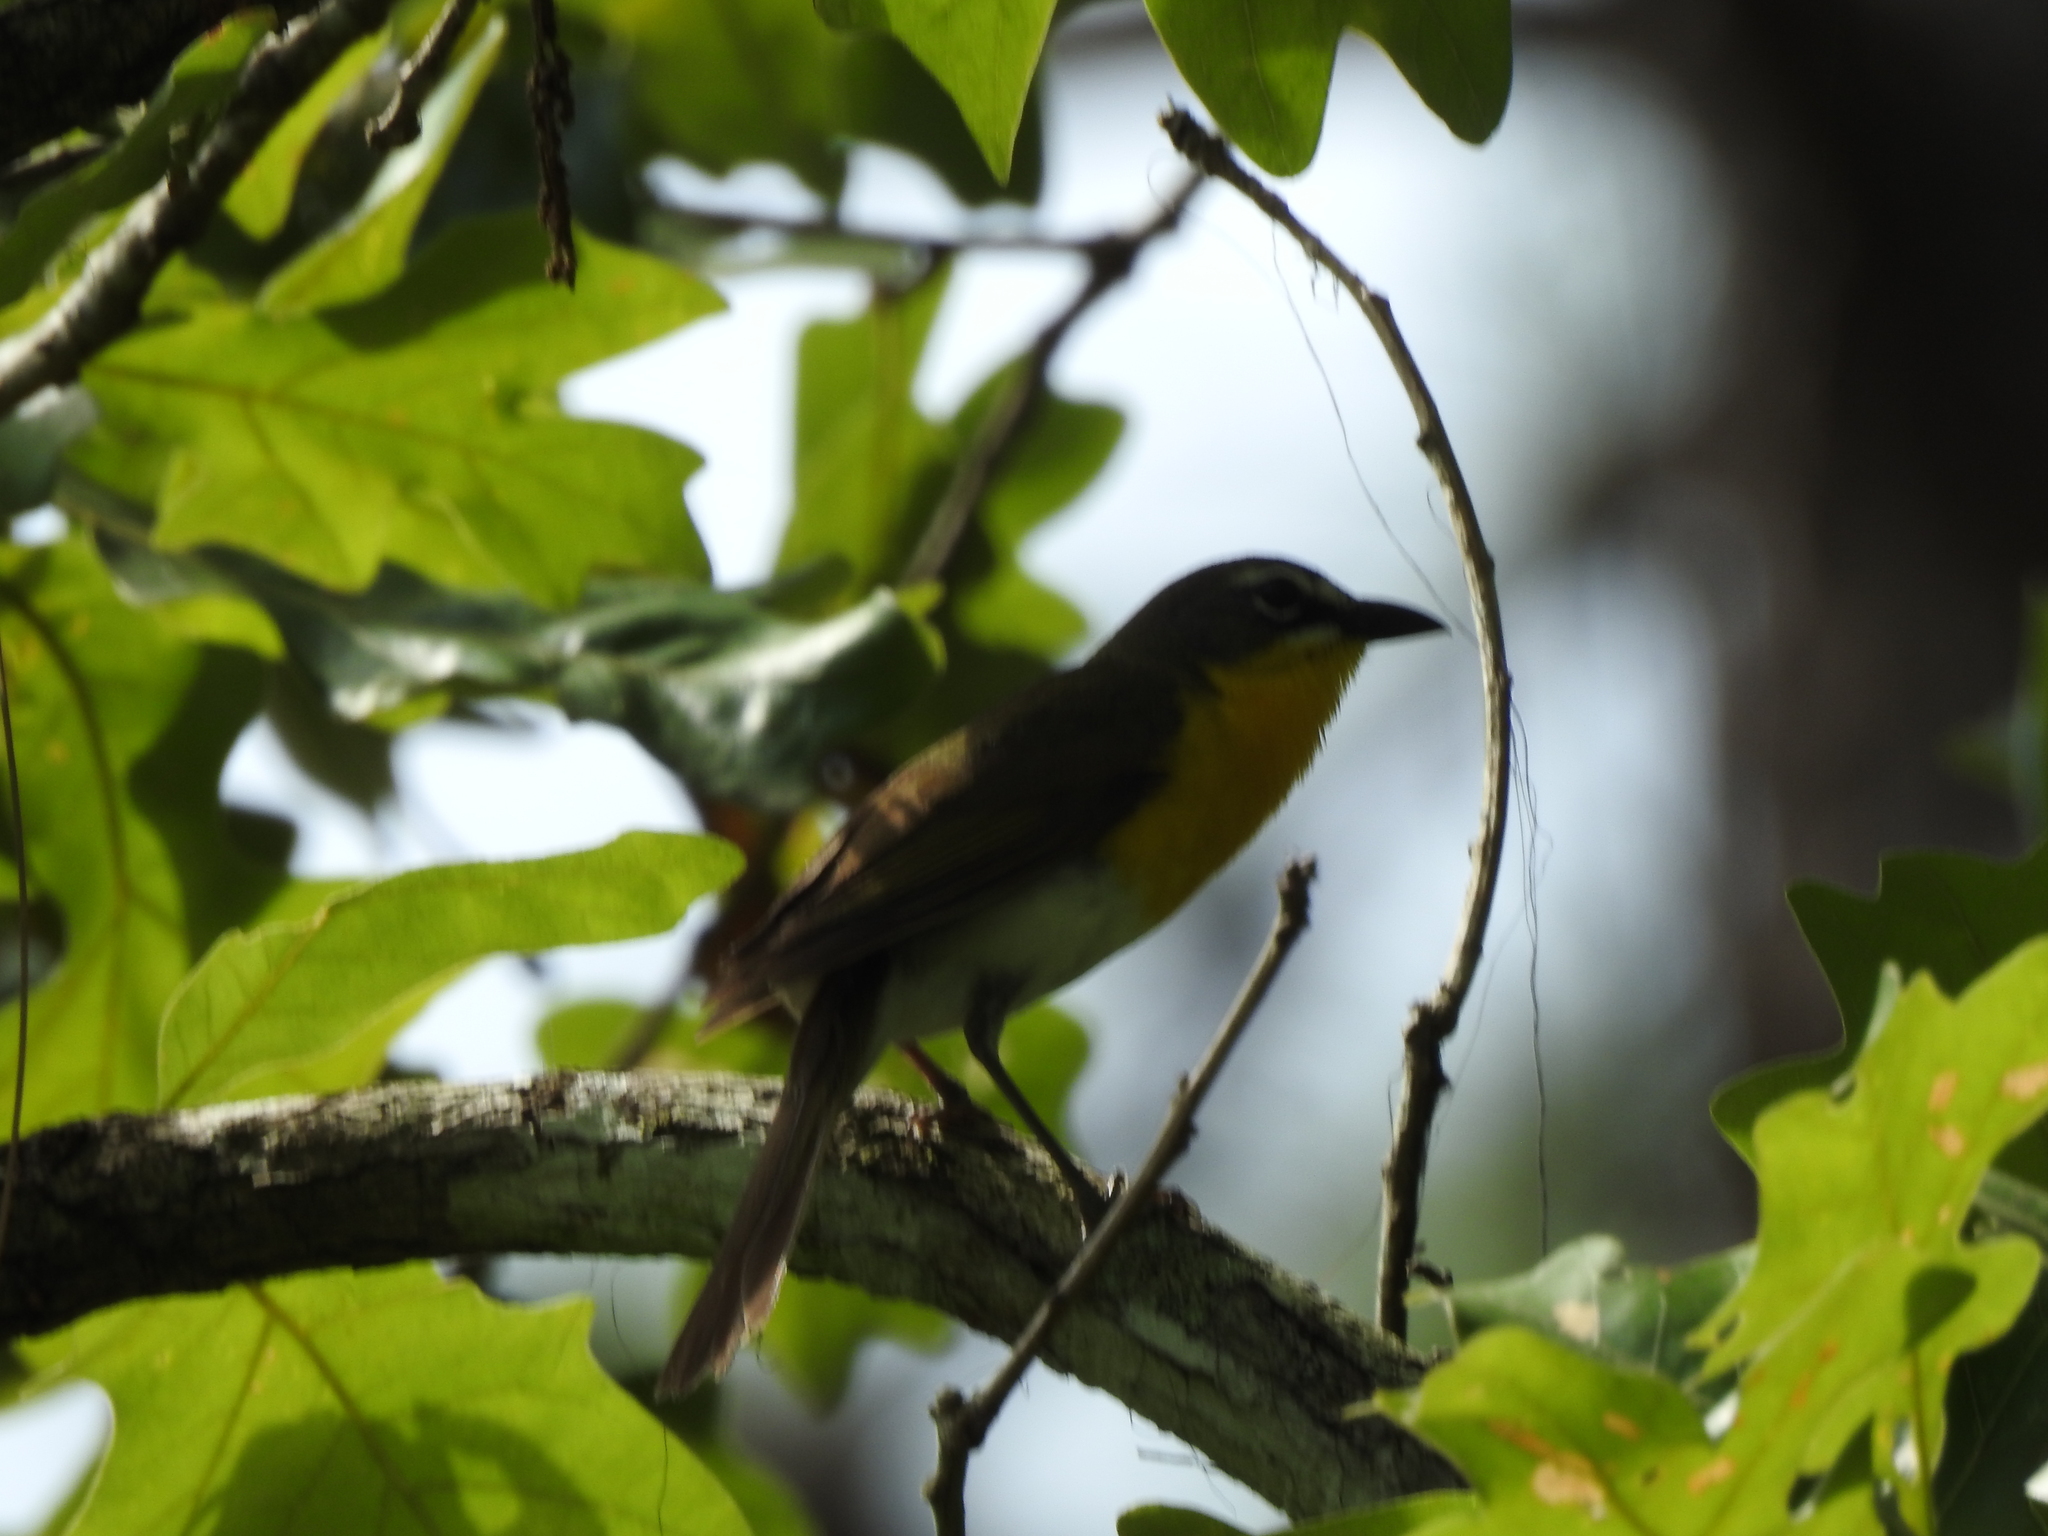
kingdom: Animalia
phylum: Chordata
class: Aves
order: Passeriformes
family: Parulidae
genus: Icteria
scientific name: Icteria virens
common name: Yellow-breasted chat
